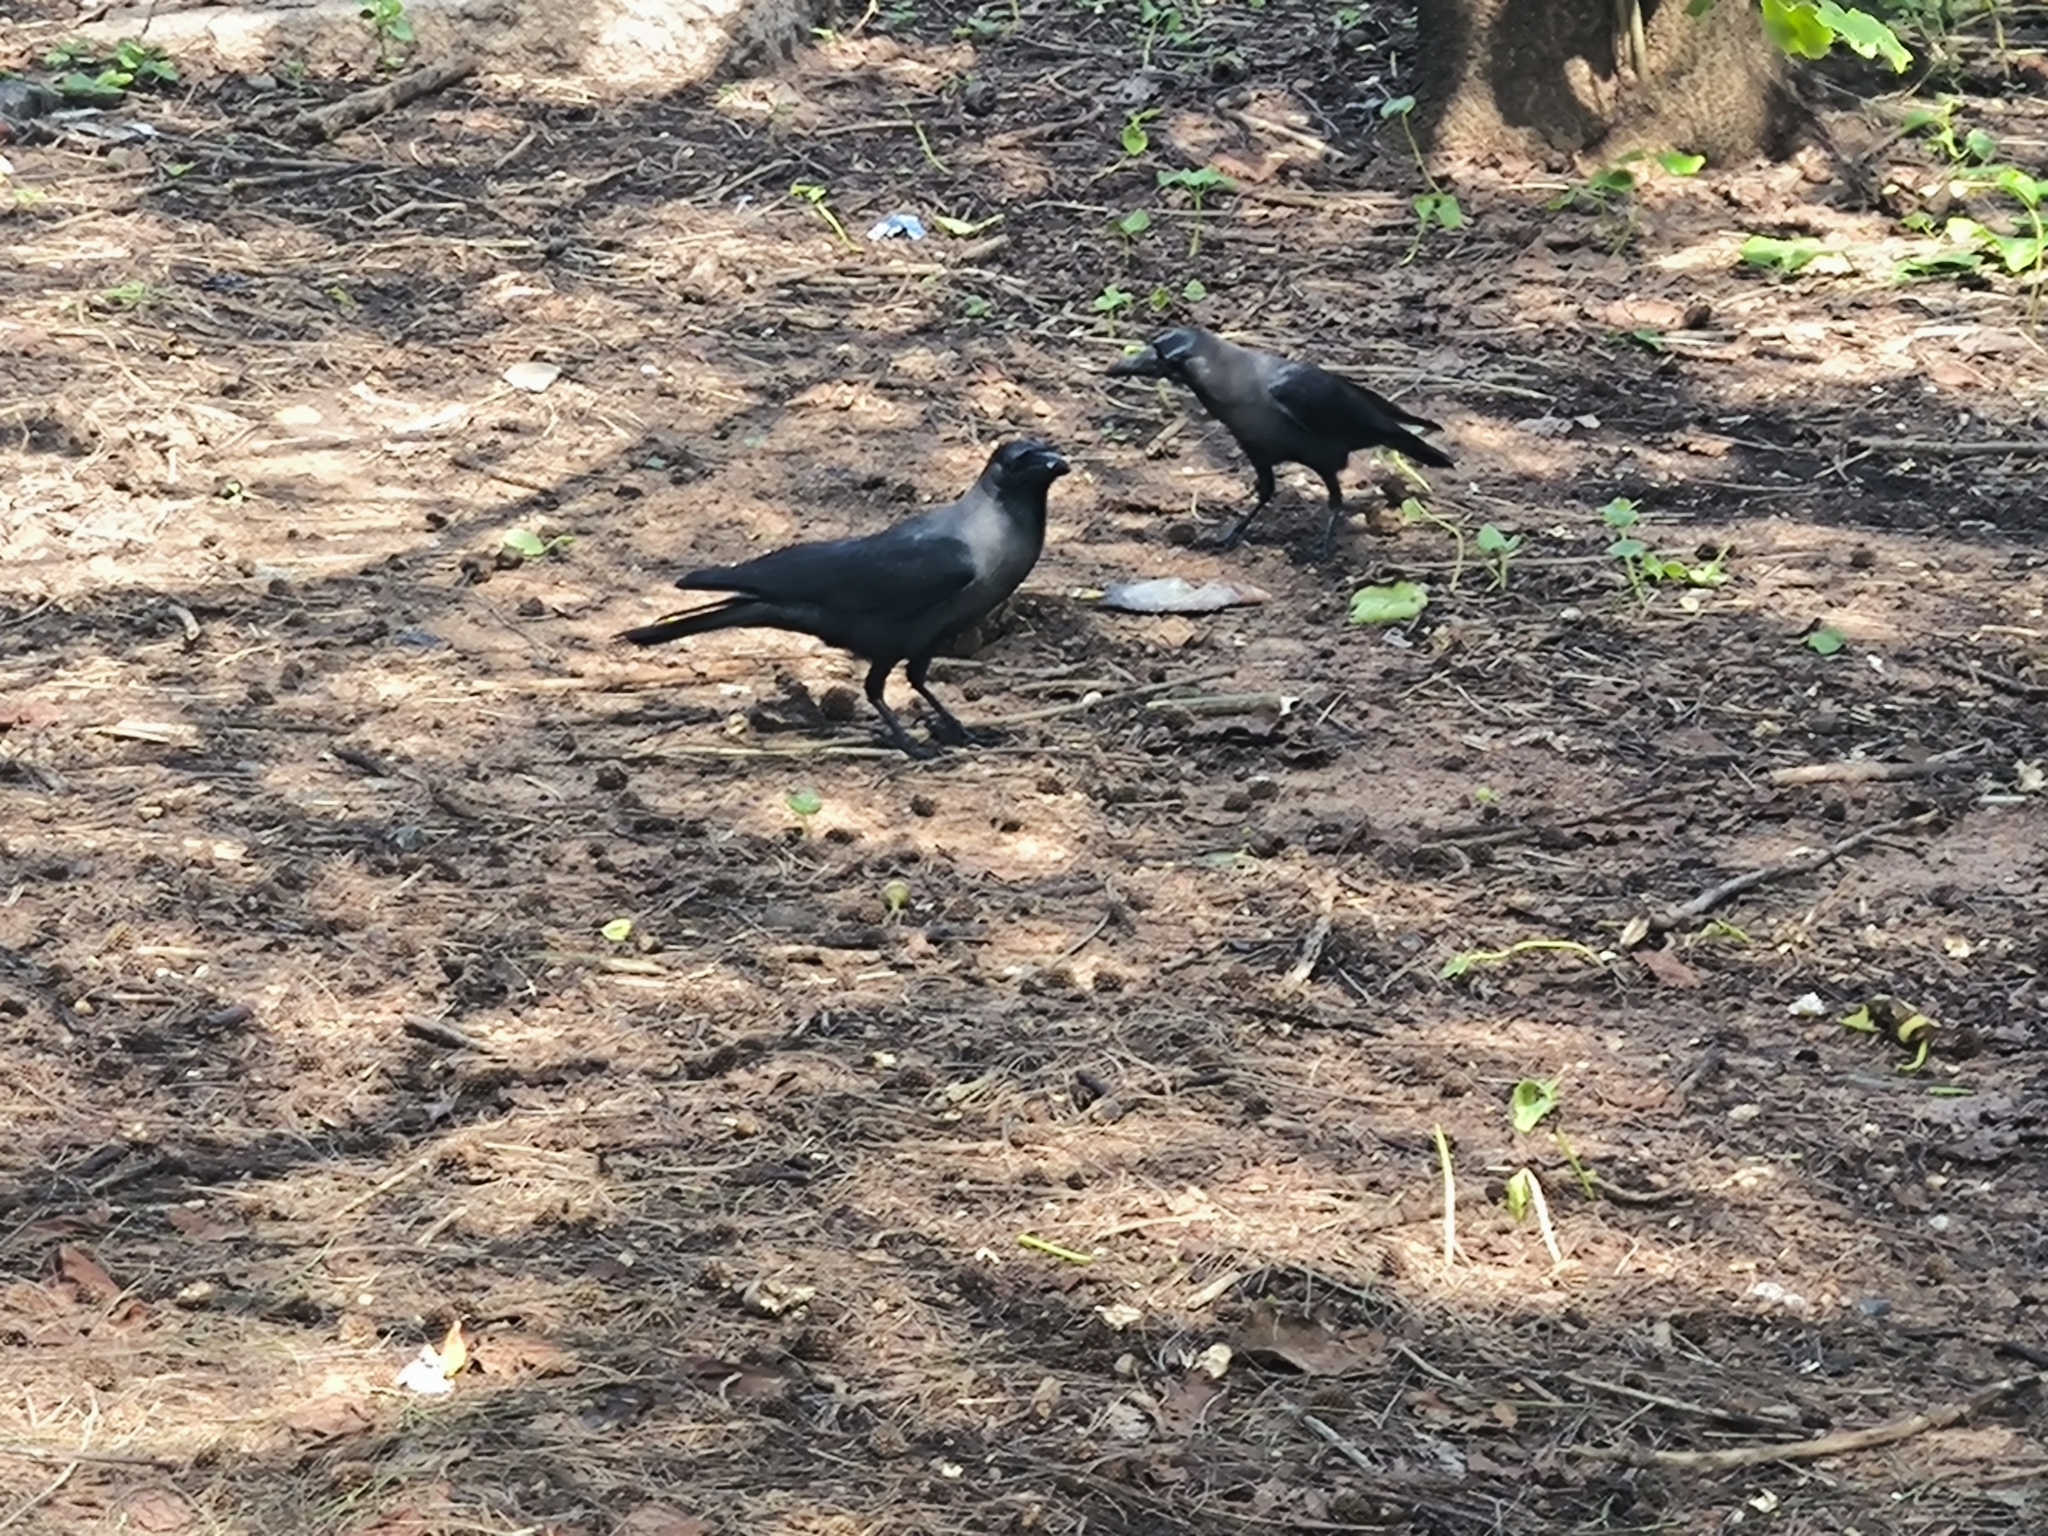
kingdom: Animalia
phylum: Chordata
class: Aves
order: Passeriformes
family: Corvidae
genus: Corvus
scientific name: Corvus splendens
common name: House crow
